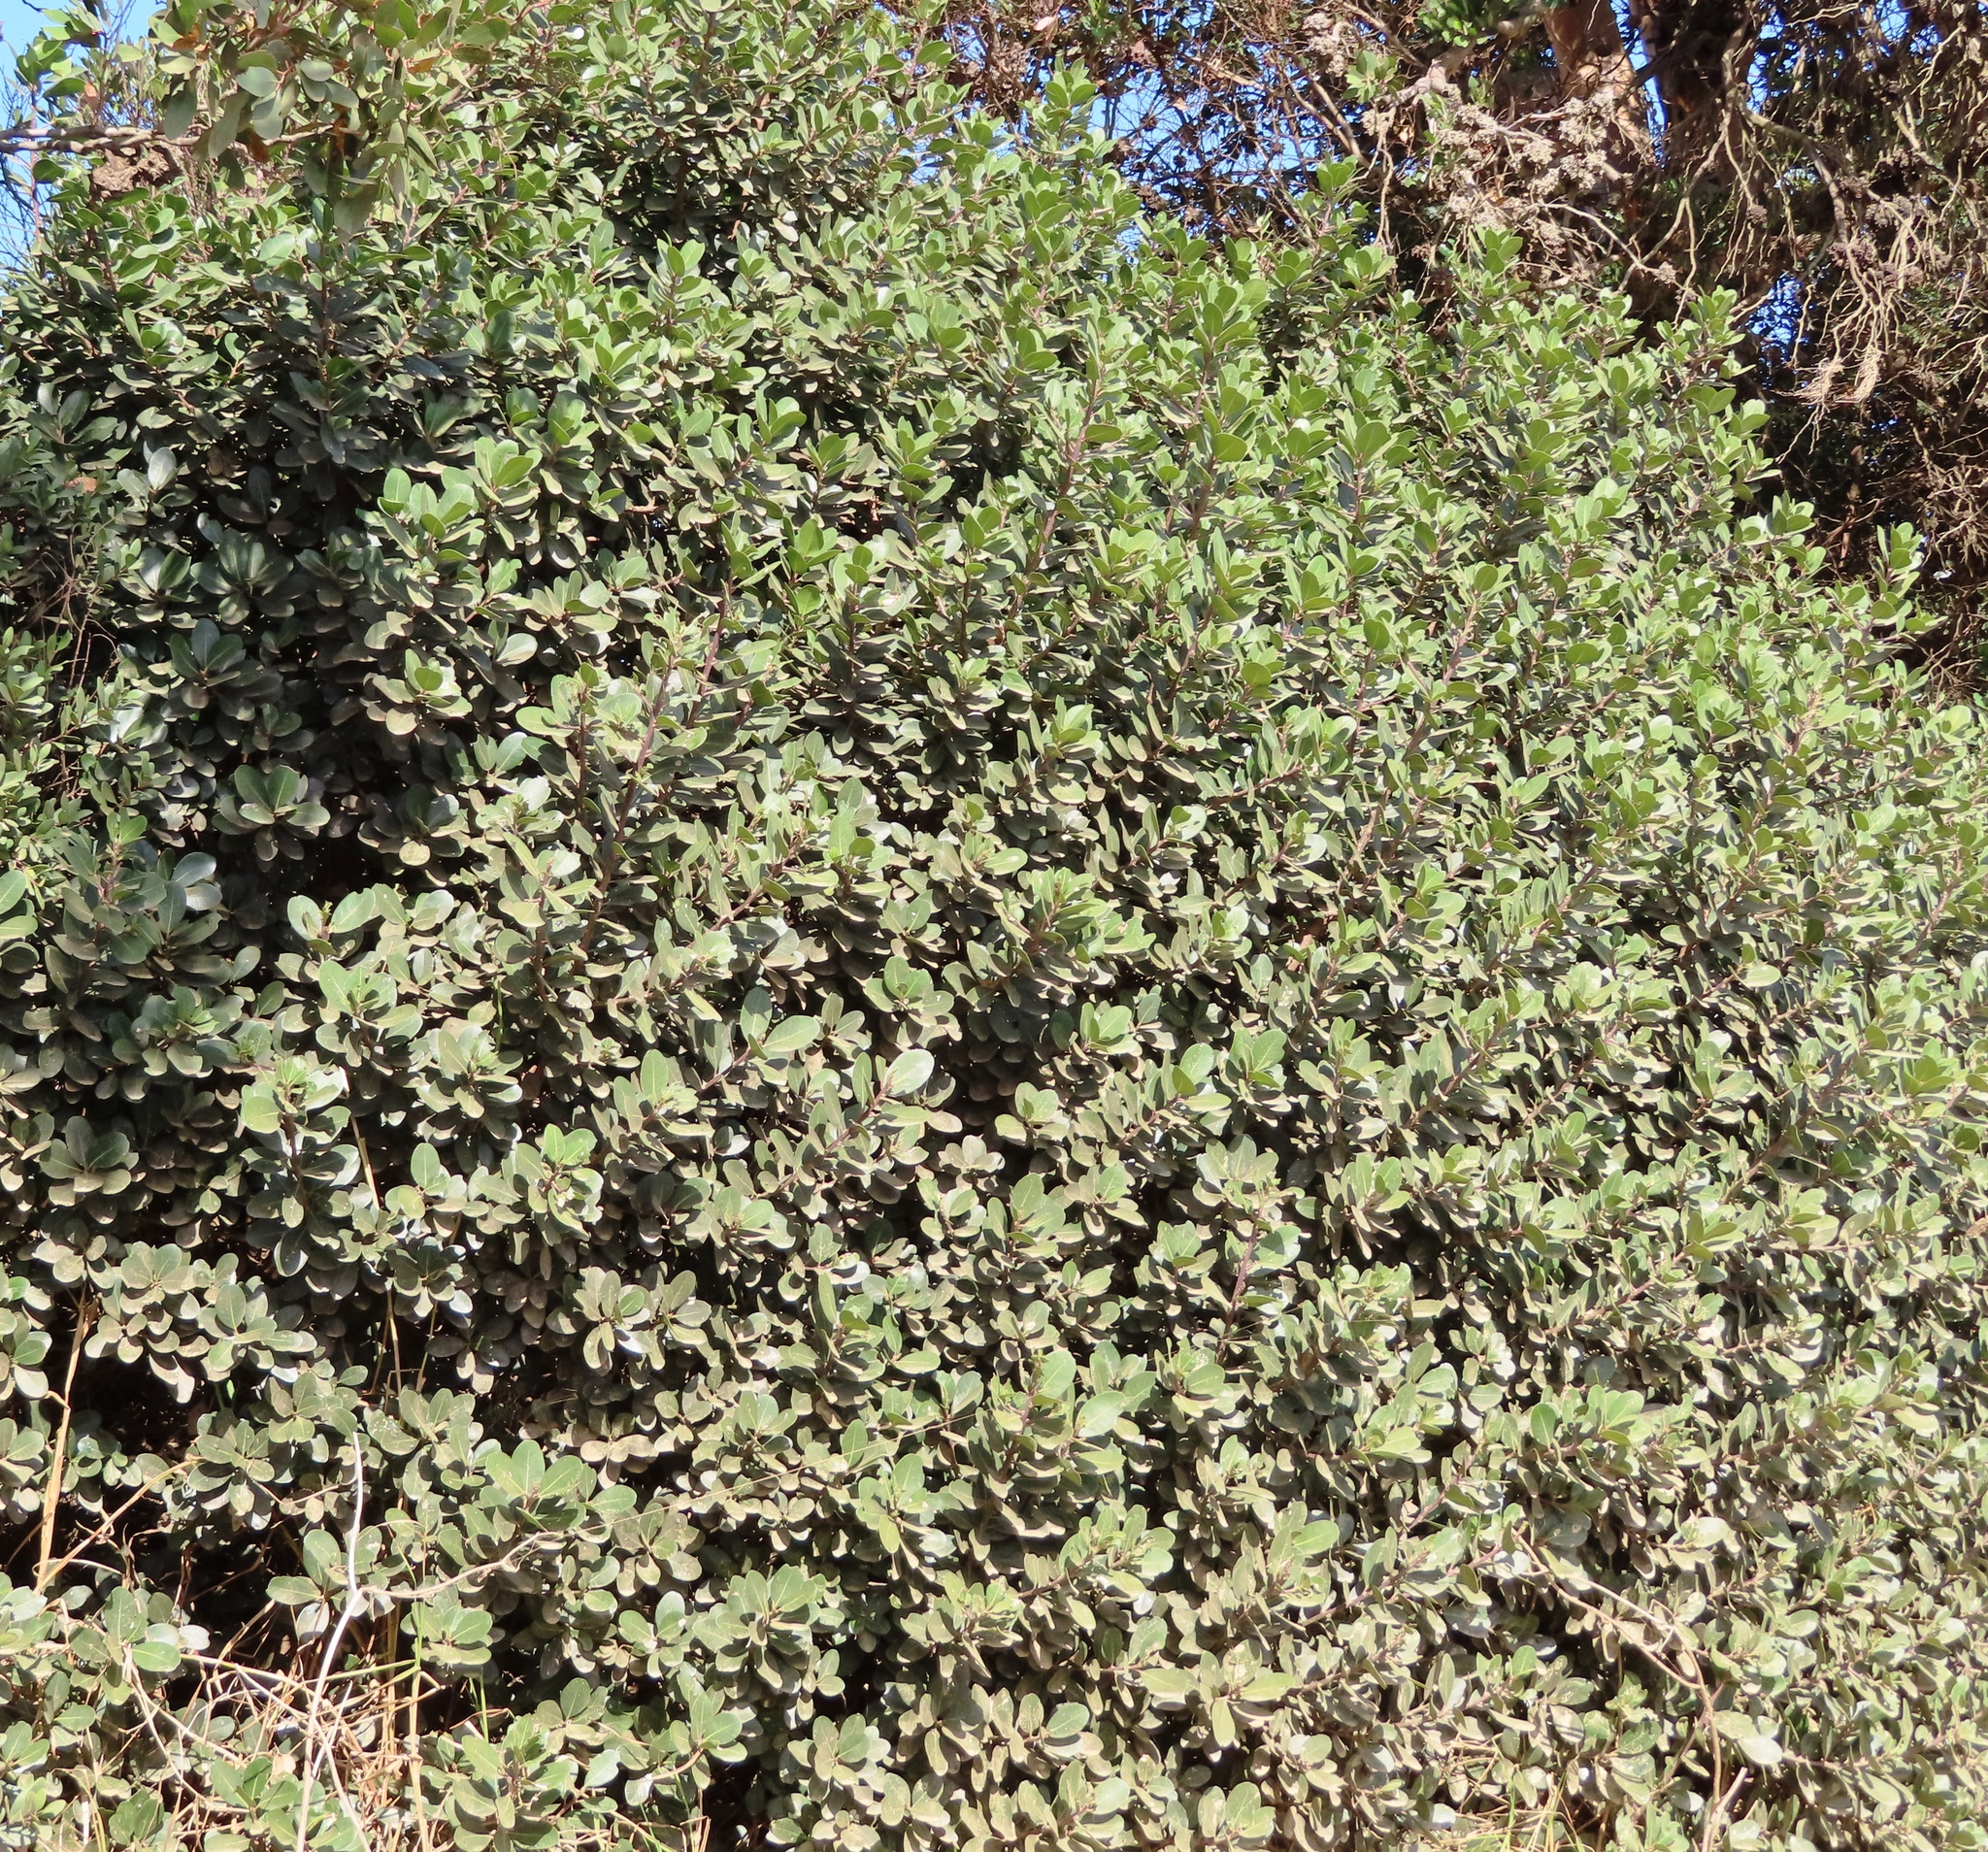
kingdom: Plantae
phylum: Tracheophyta
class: Magnoliopsida
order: Ericales
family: Sapotaceae
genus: Sideroxylon
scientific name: Sideroxylon inerme
